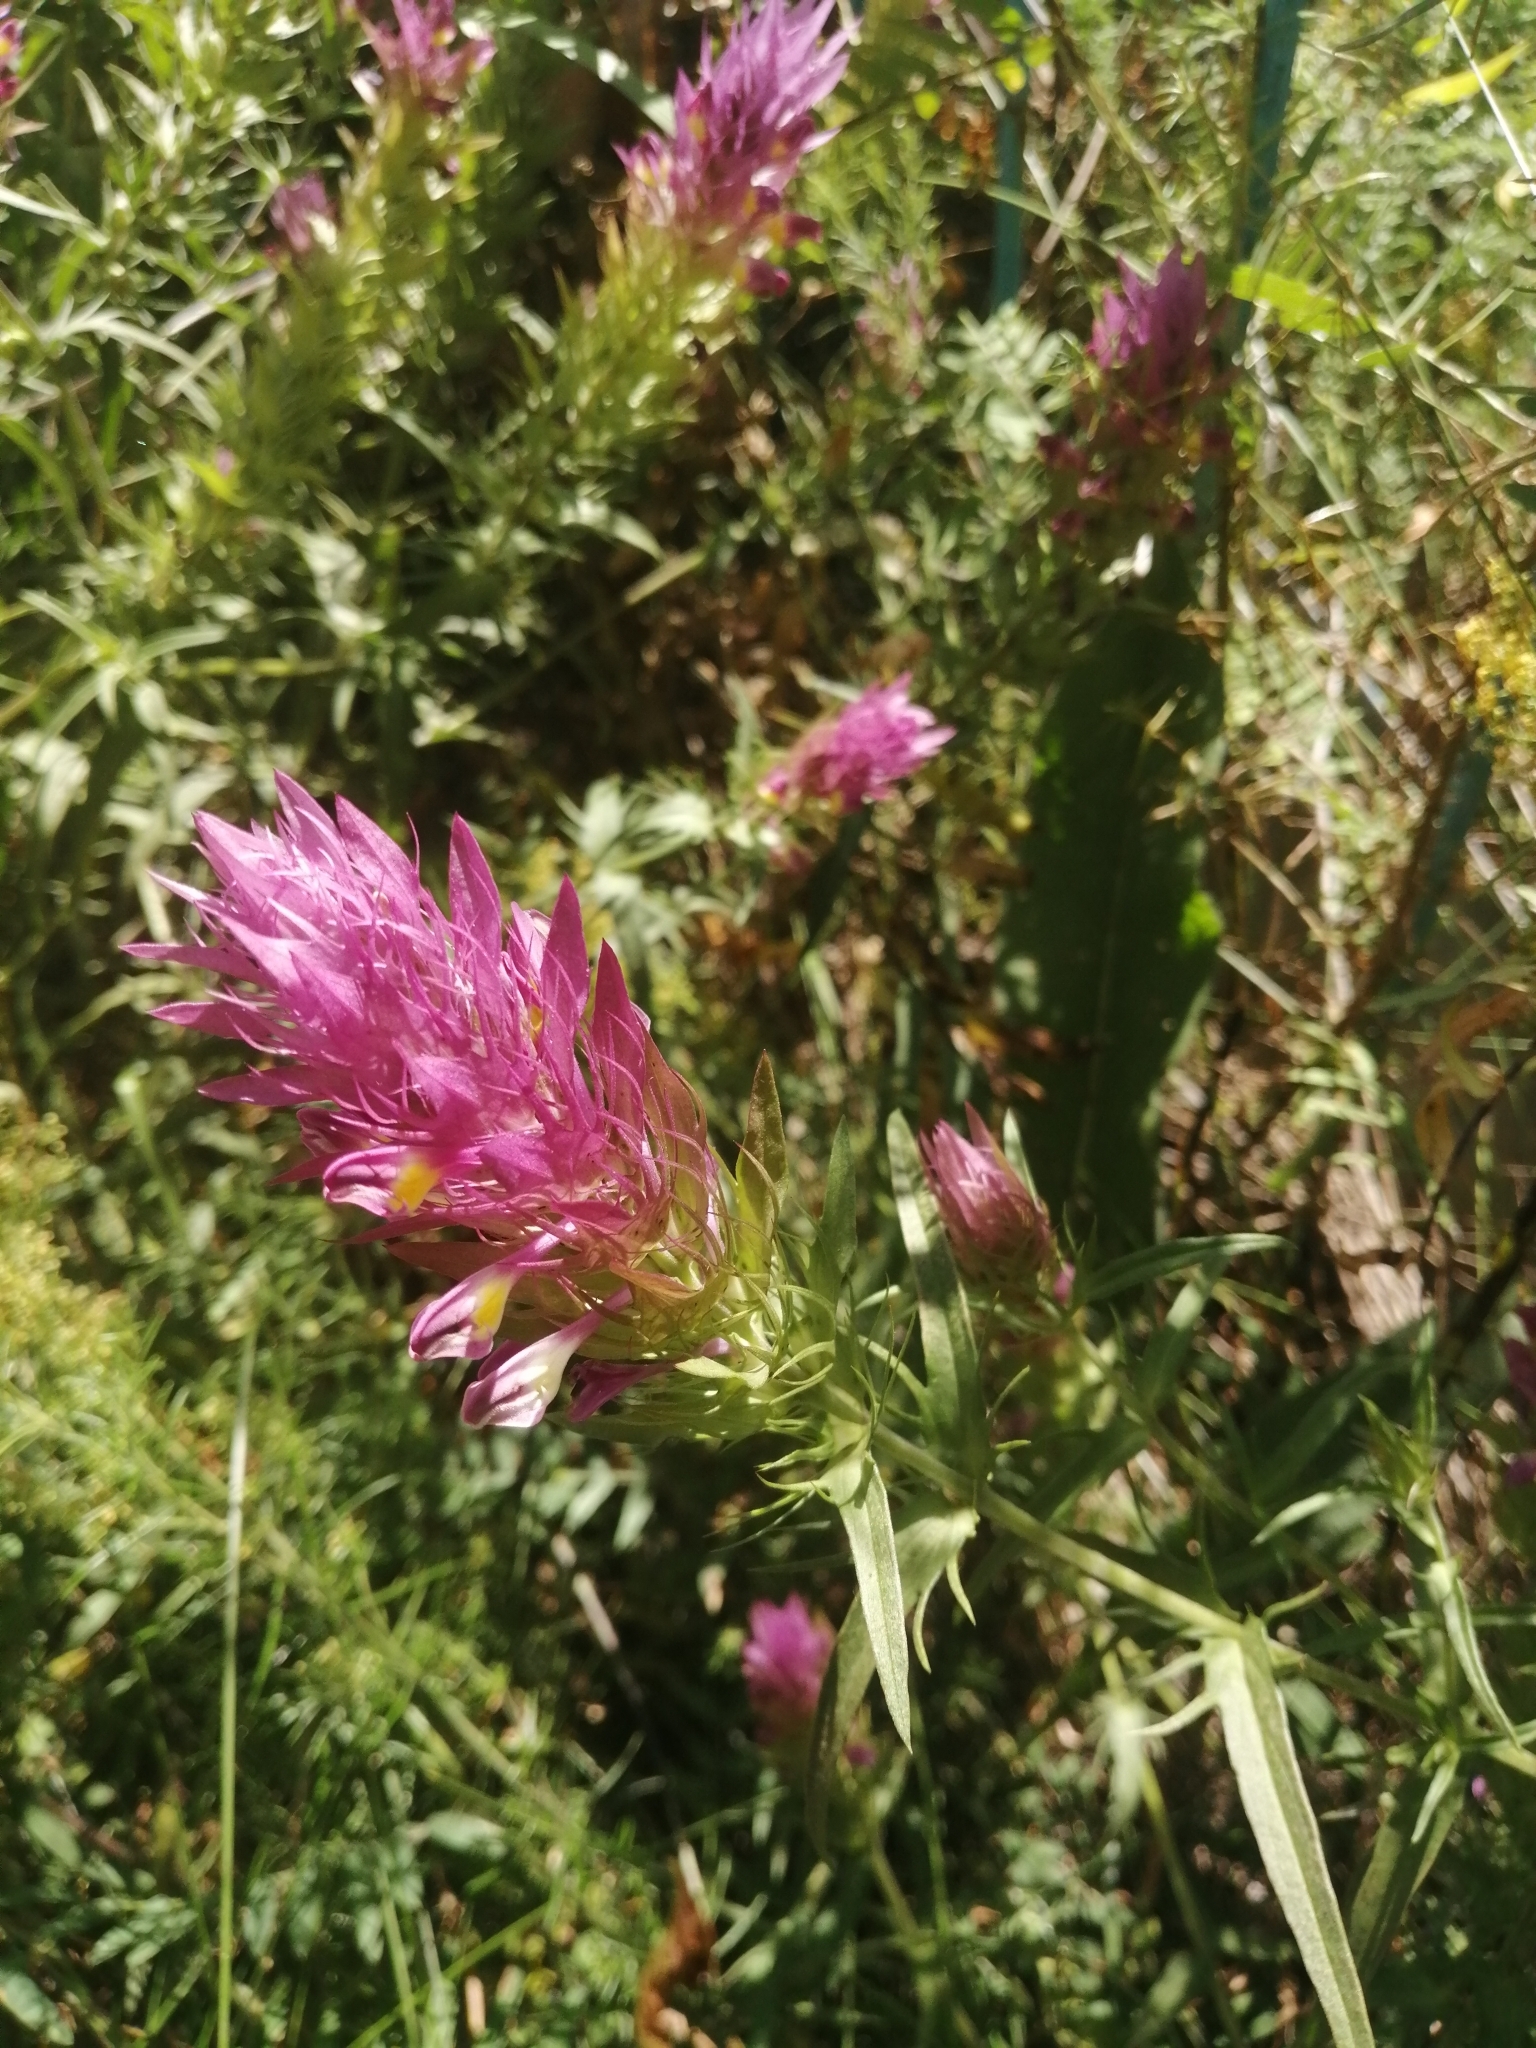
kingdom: Plantae
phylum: Tracheophyta
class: Magnoliopsida
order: Lamiales
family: Orobanchaceae
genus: Melampyrum
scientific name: Melampyrum arvense
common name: Field cow-wheat
